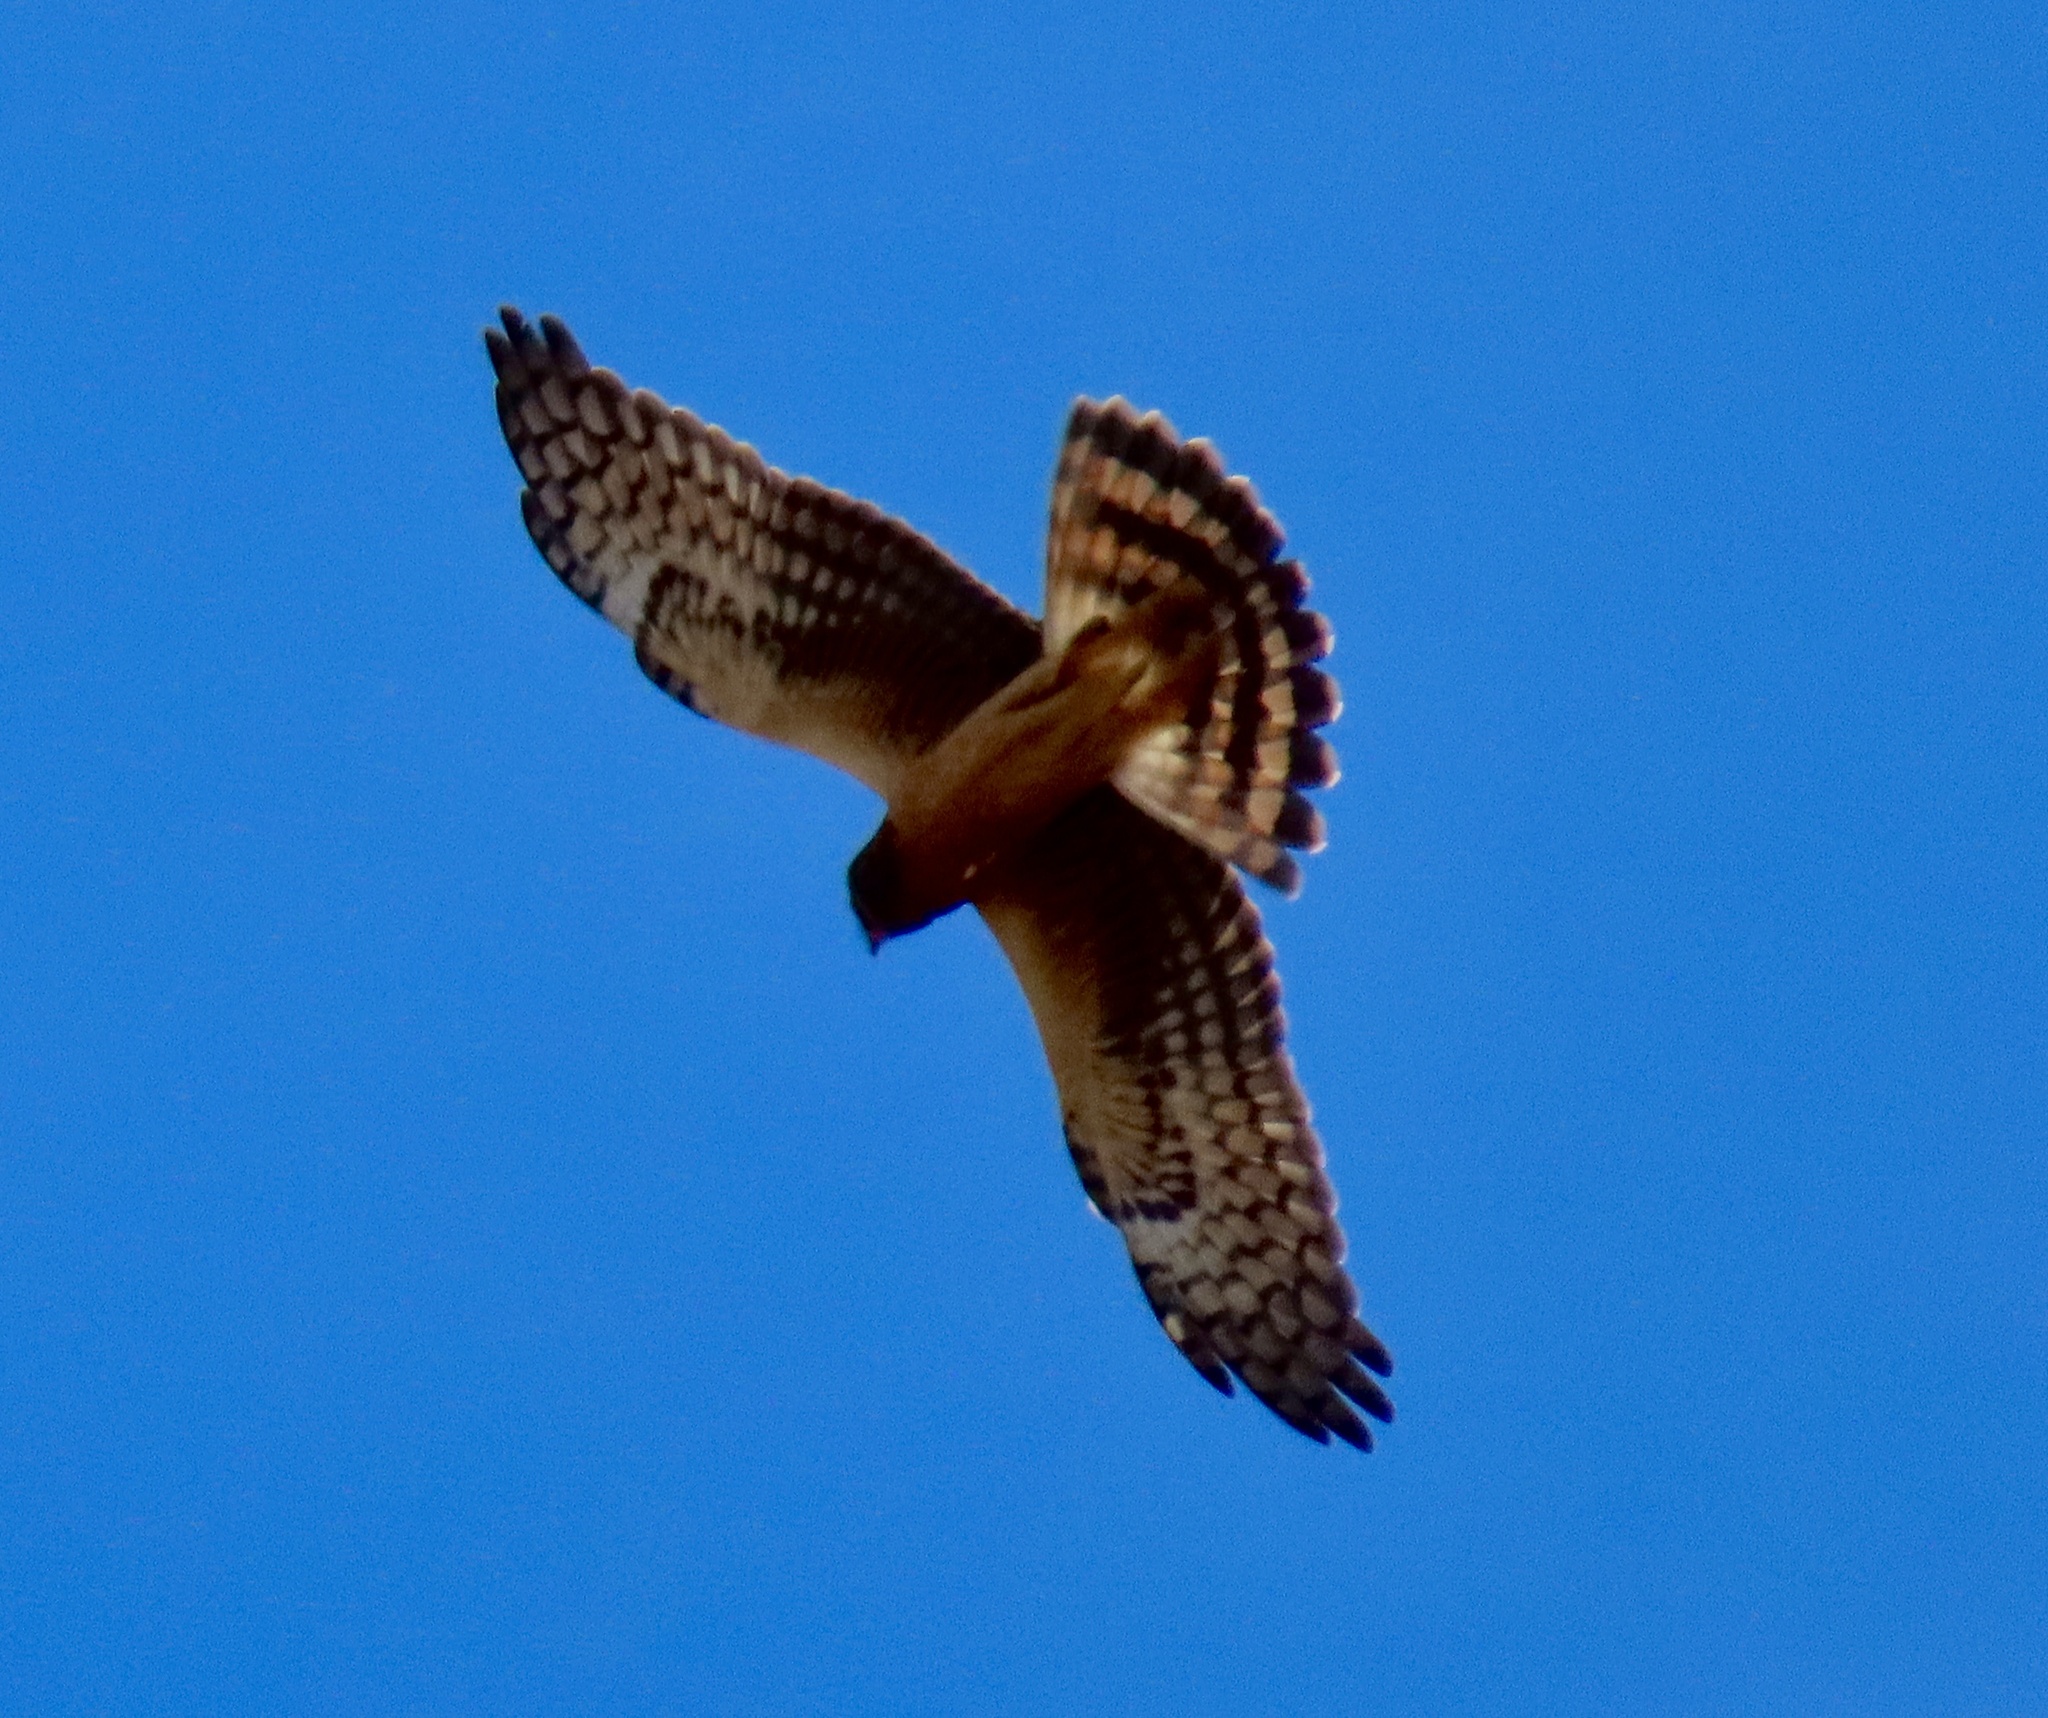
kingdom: Animalia
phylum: Chordata
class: Aves
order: Accipitriformes
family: Accipitridae
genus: Circus
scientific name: Circus cyaneus
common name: Hen harrier
